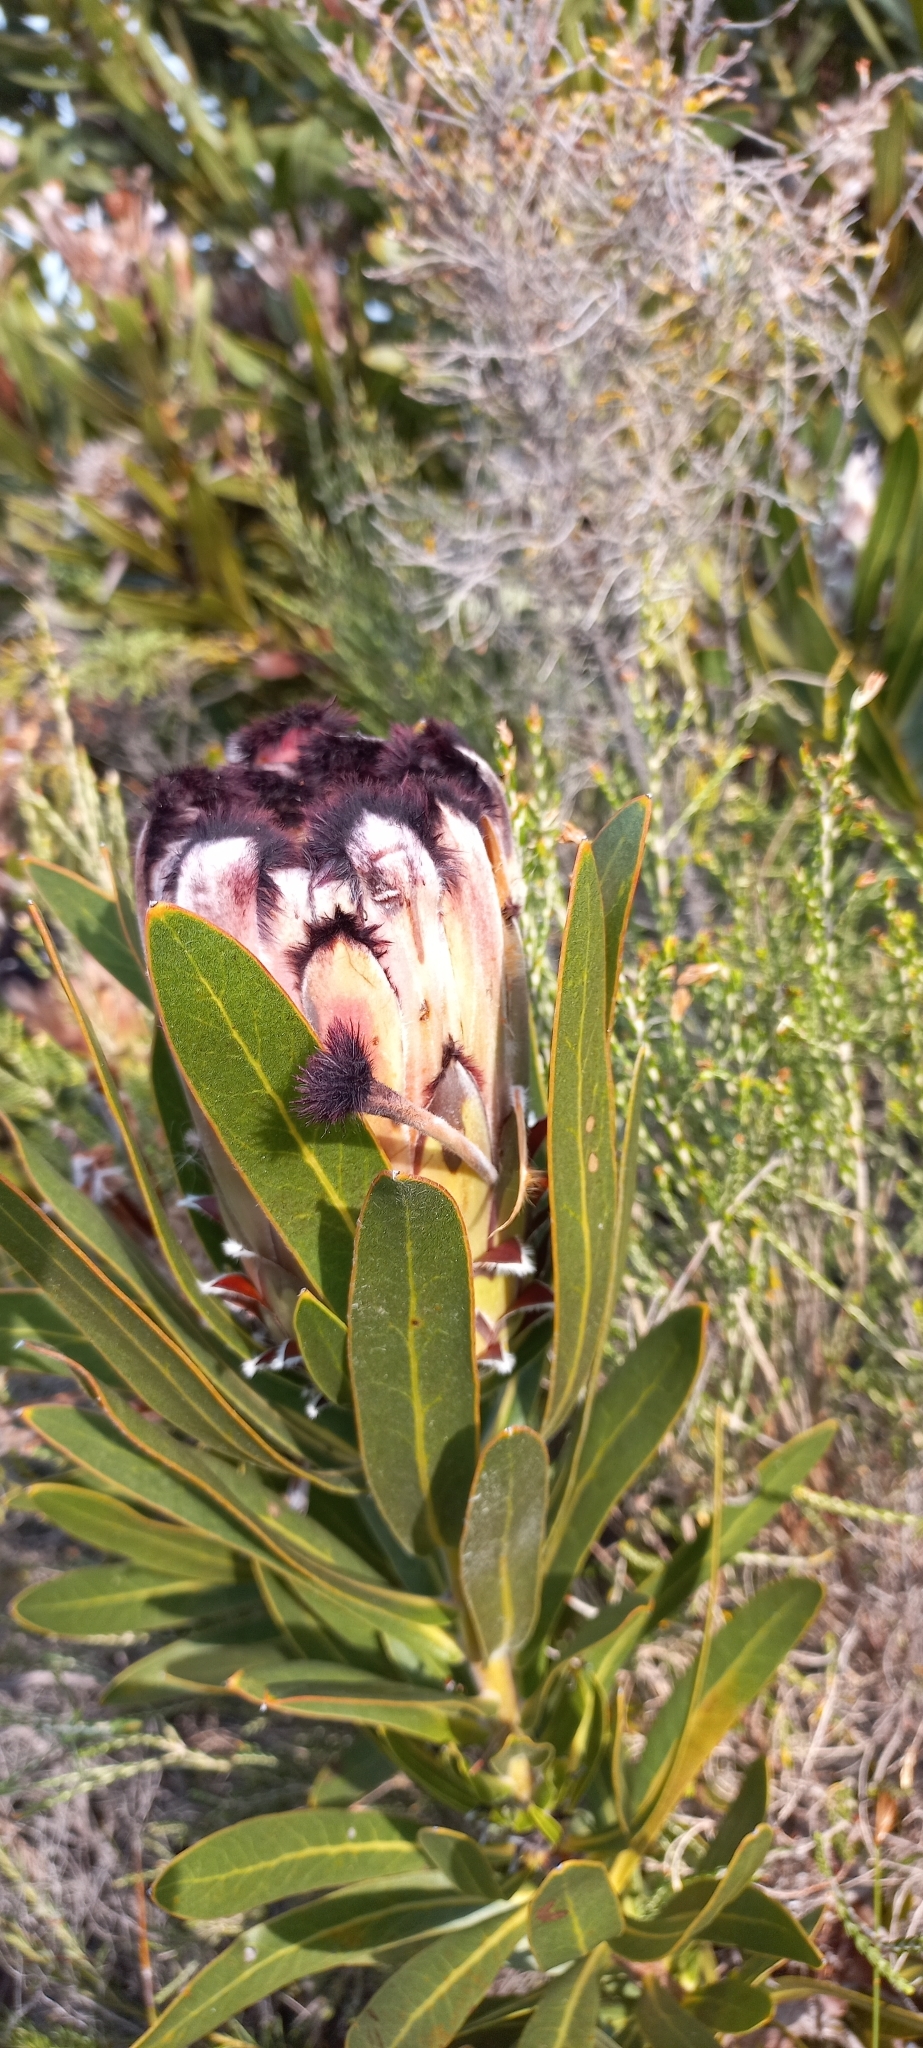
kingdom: Plantae
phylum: Tracheophyta
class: Magnoliopsida
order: Proteales
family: Proteaceae
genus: Protea
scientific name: Protea
